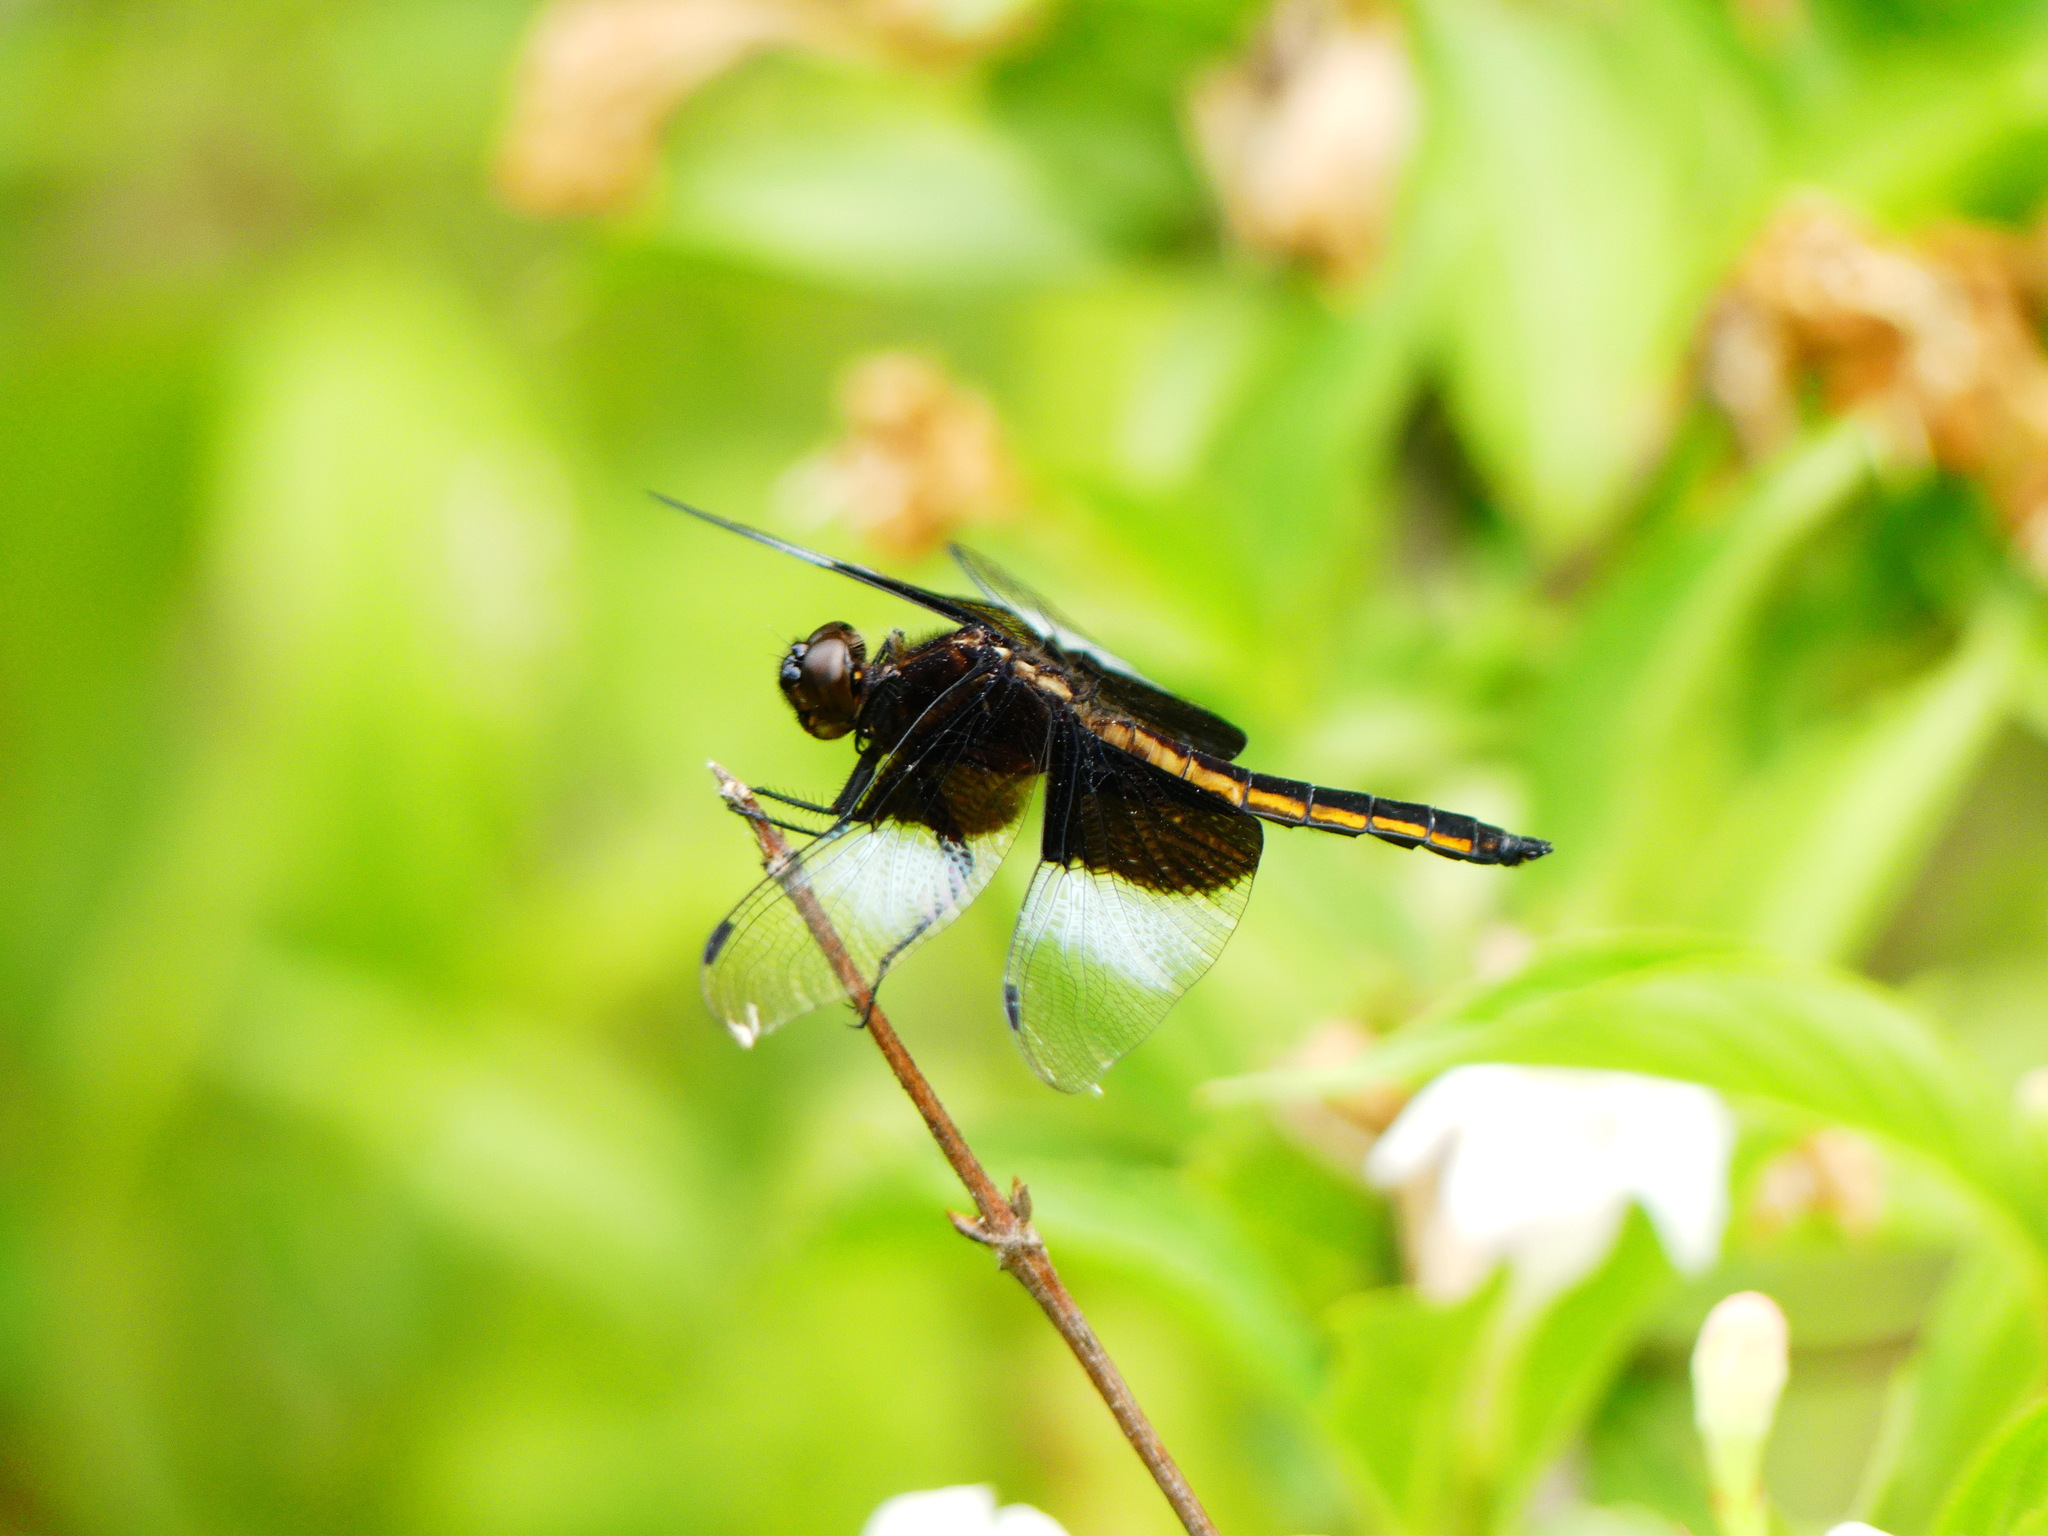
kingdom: Animalia
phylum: Arthropoda
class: Insecta
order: Odonata
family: Libellulidae
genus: Libellula
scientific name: Libellula luctuosa
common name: Widow skimmer
